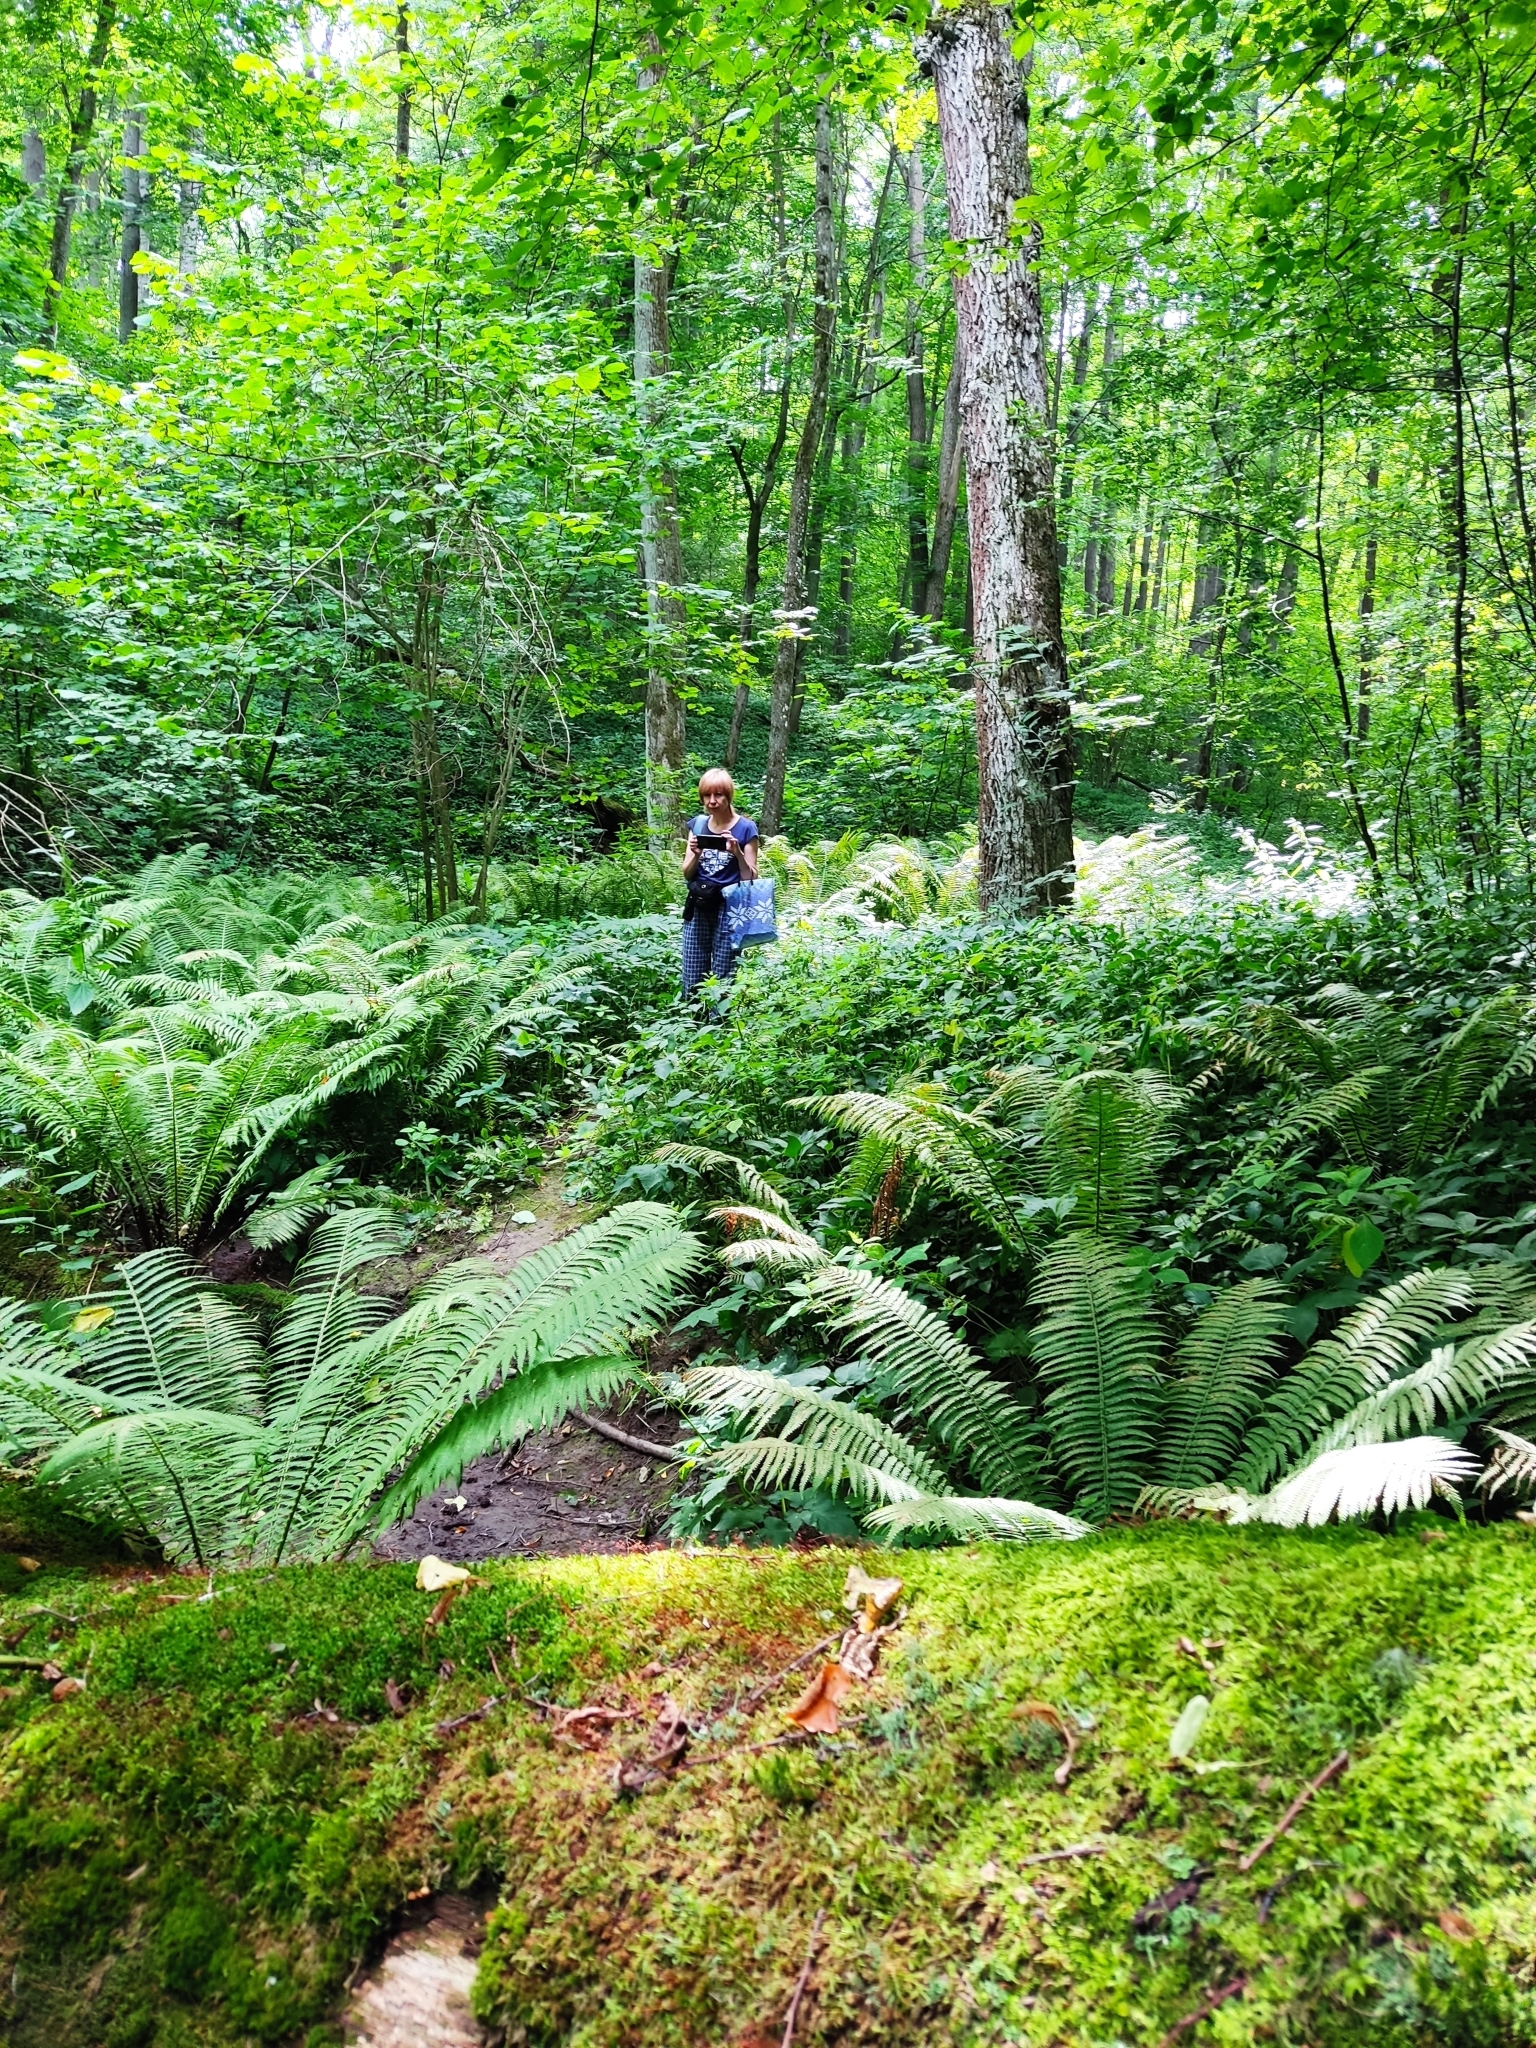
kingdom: Plantae
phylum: Tracheophyta
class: Polypodiopsida
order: Polypodiales
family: Onocleaceae
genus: Matteuccia
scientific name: Matteuccia struthiopteris
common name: Ostrich fern
